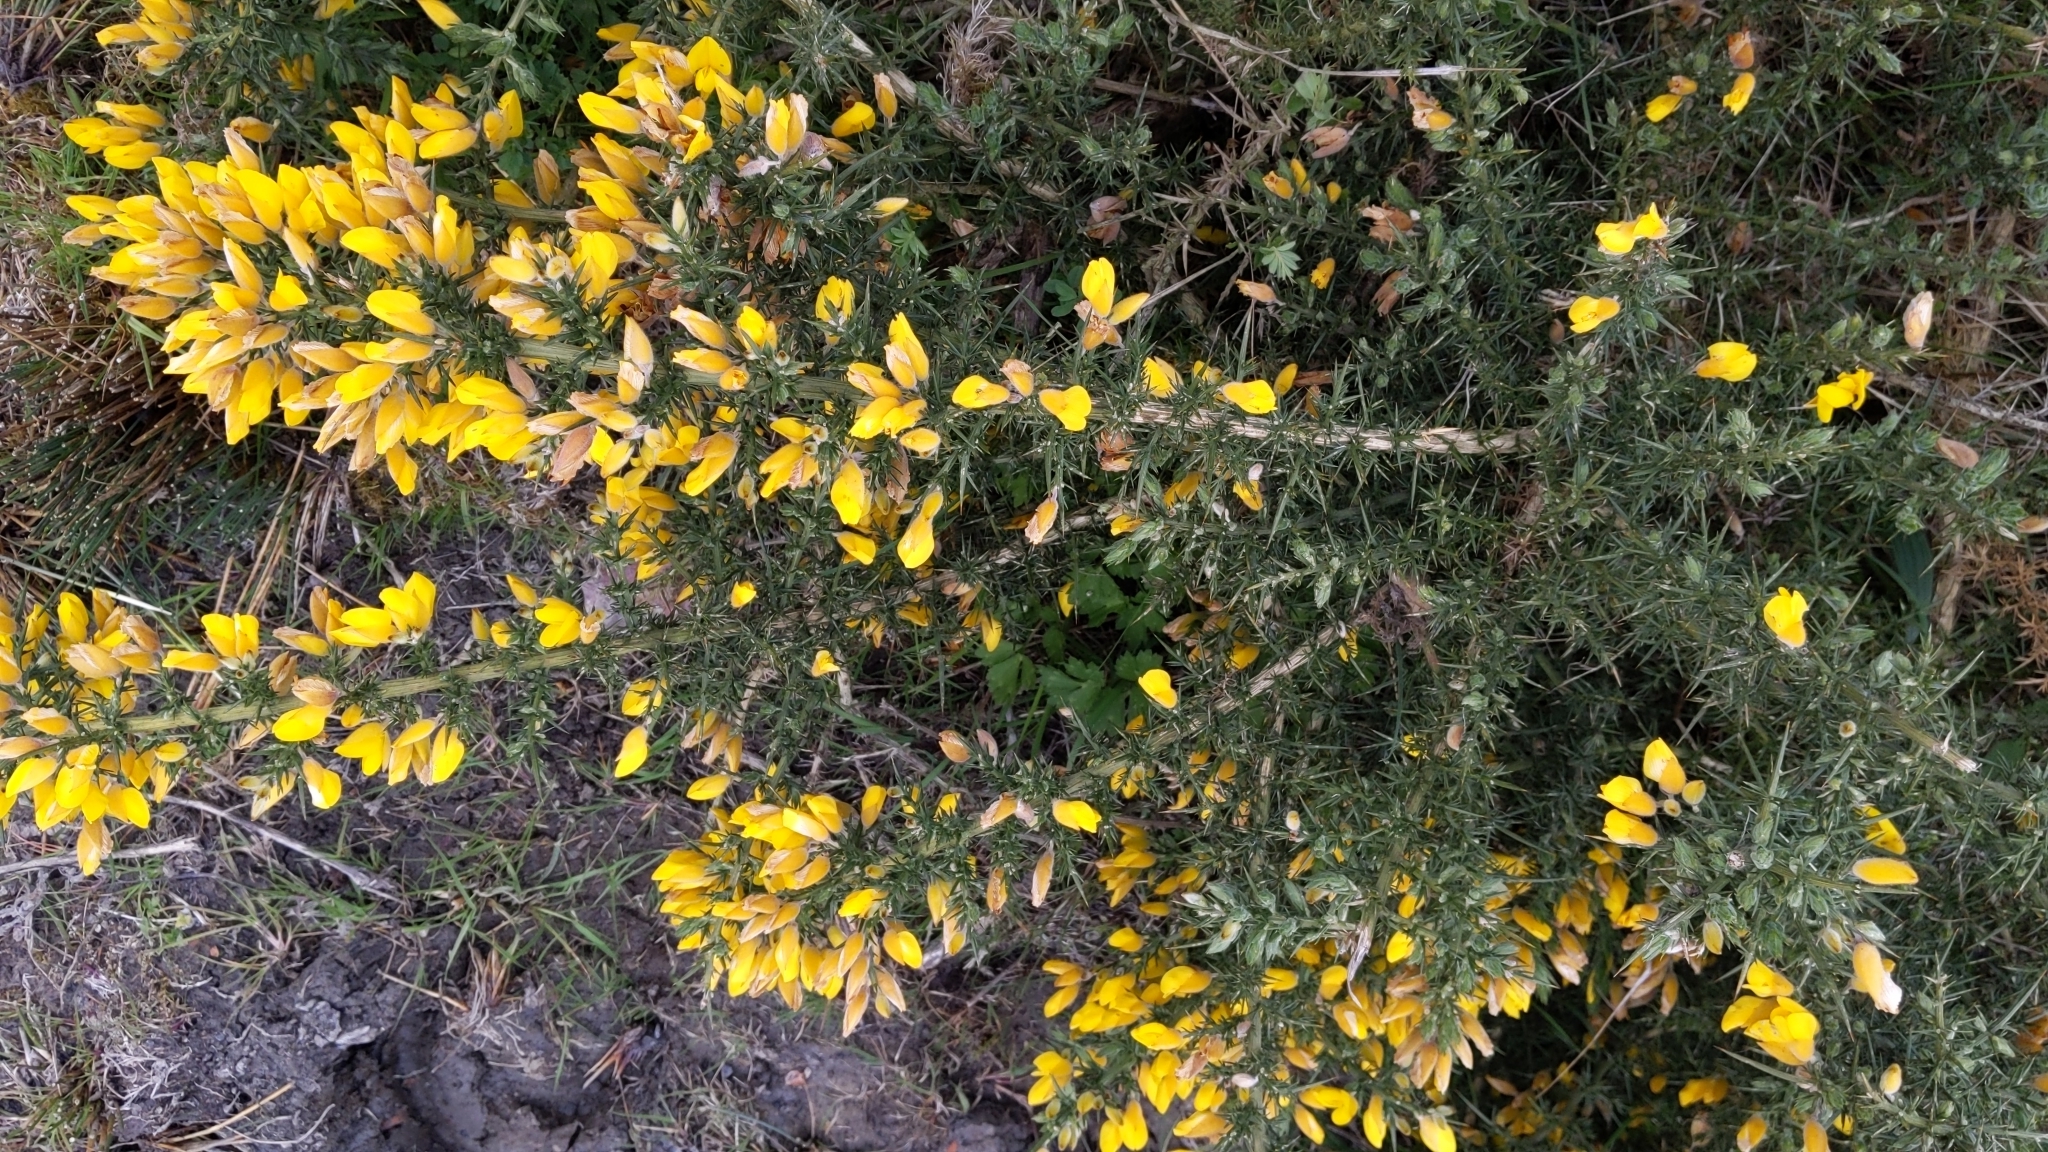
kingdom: Plantae
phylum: Tracheophyta
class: Magnoliopsida
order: Fabales
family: Fabaceae
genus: Ulex
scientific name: Ulex europaeus
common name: Common gorse
